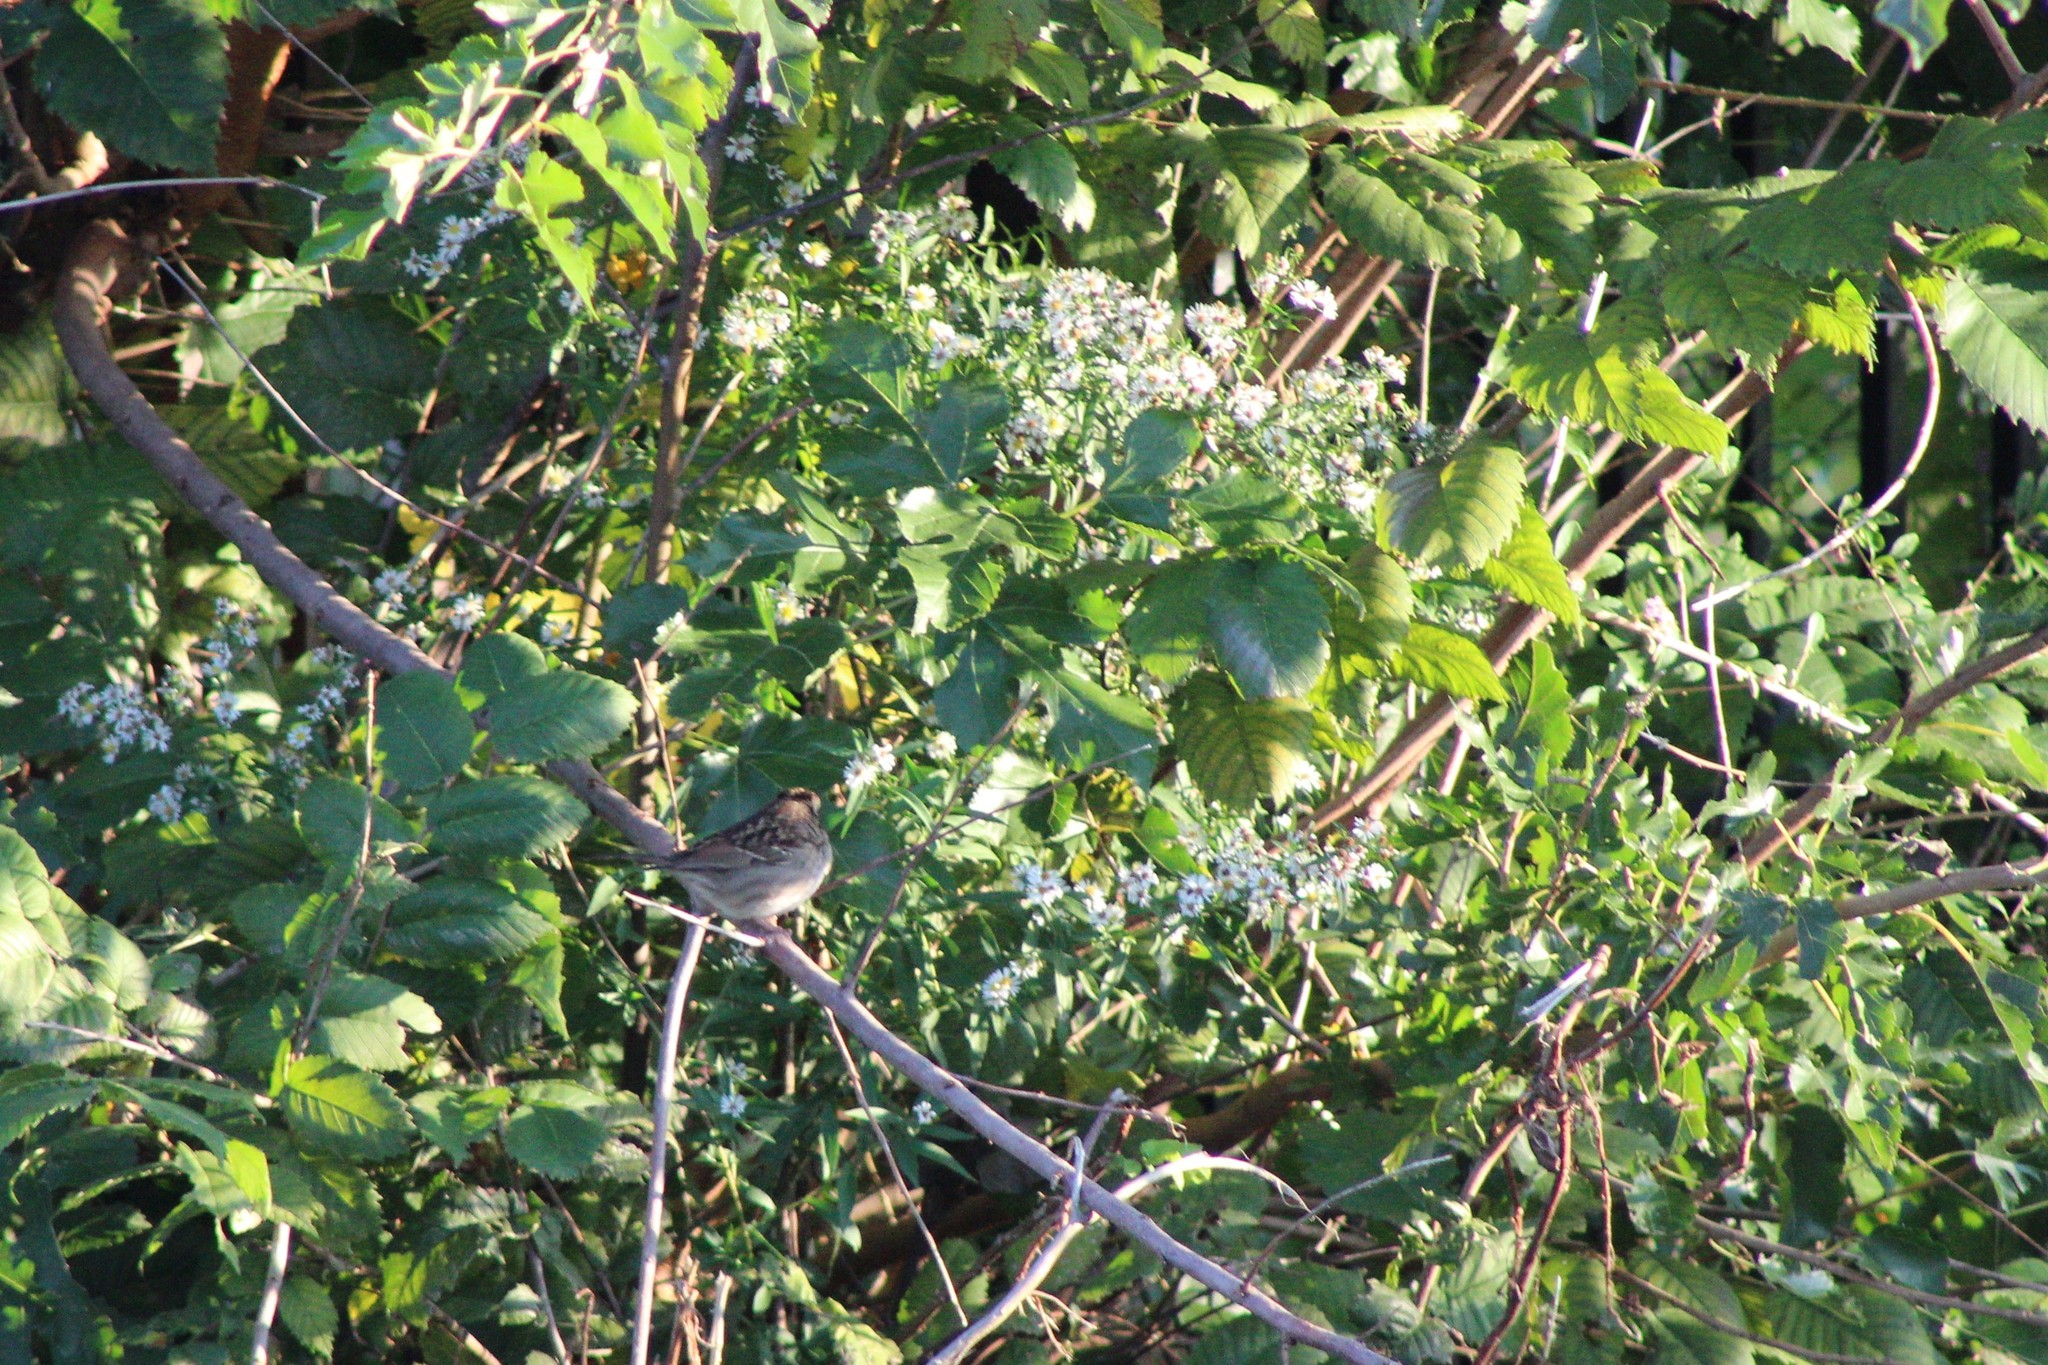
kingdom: Animalia
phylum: Chordata
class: Aves
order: Passeriformes
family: Passerellidae
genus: Zonotrichia
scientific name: Zonotrichia albicollis
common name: White-throated sparrow
